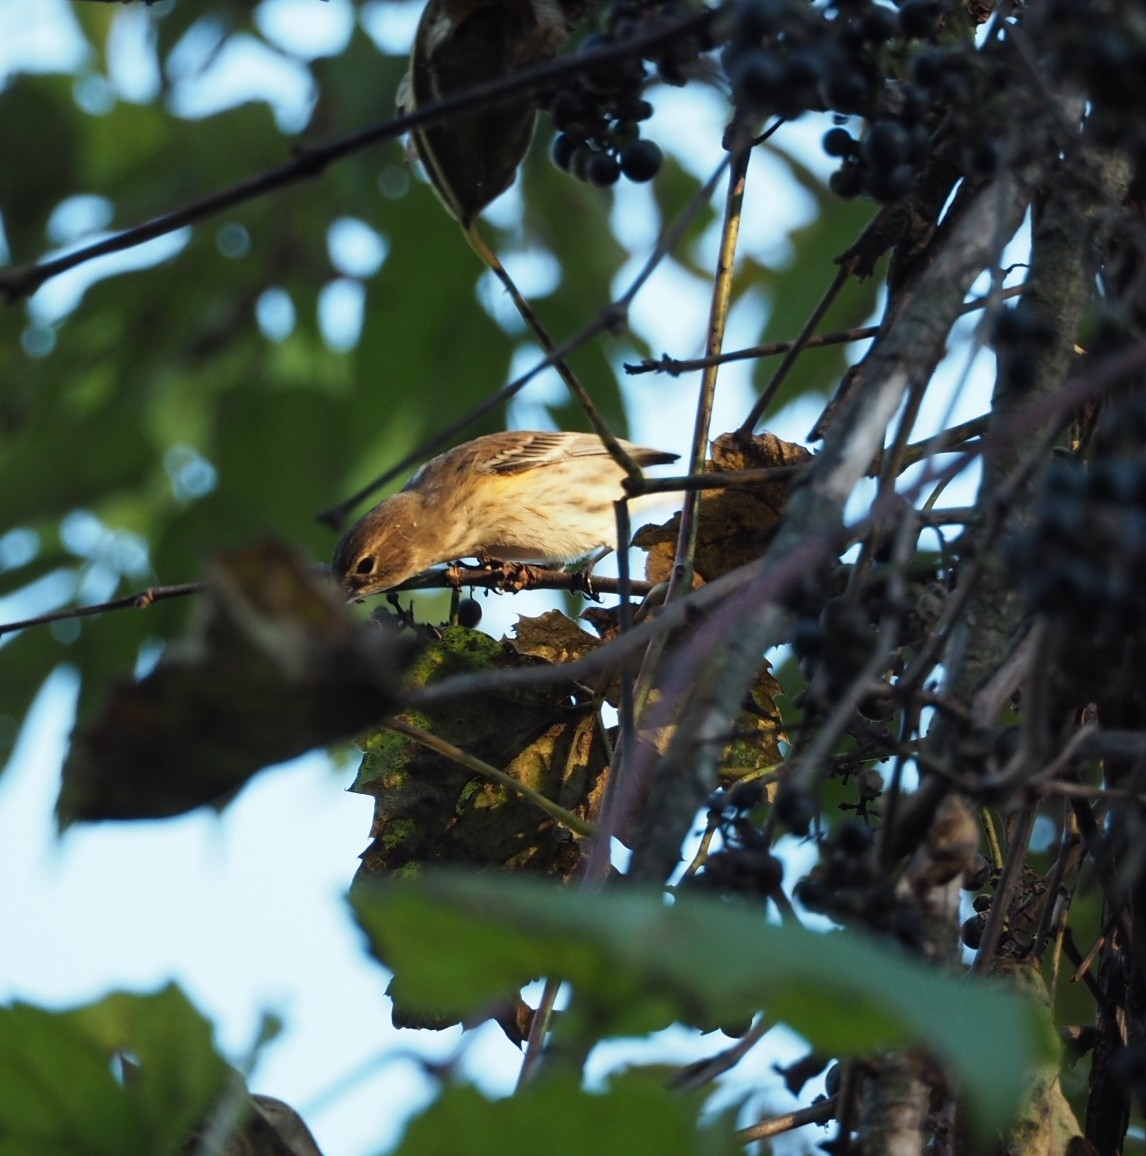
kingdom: Animalia
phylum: Chordata
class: Aves
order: Passeriformes
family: Parulidae
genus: Setophaga
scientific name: Setophaga coronata
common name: Myrtle warbler
